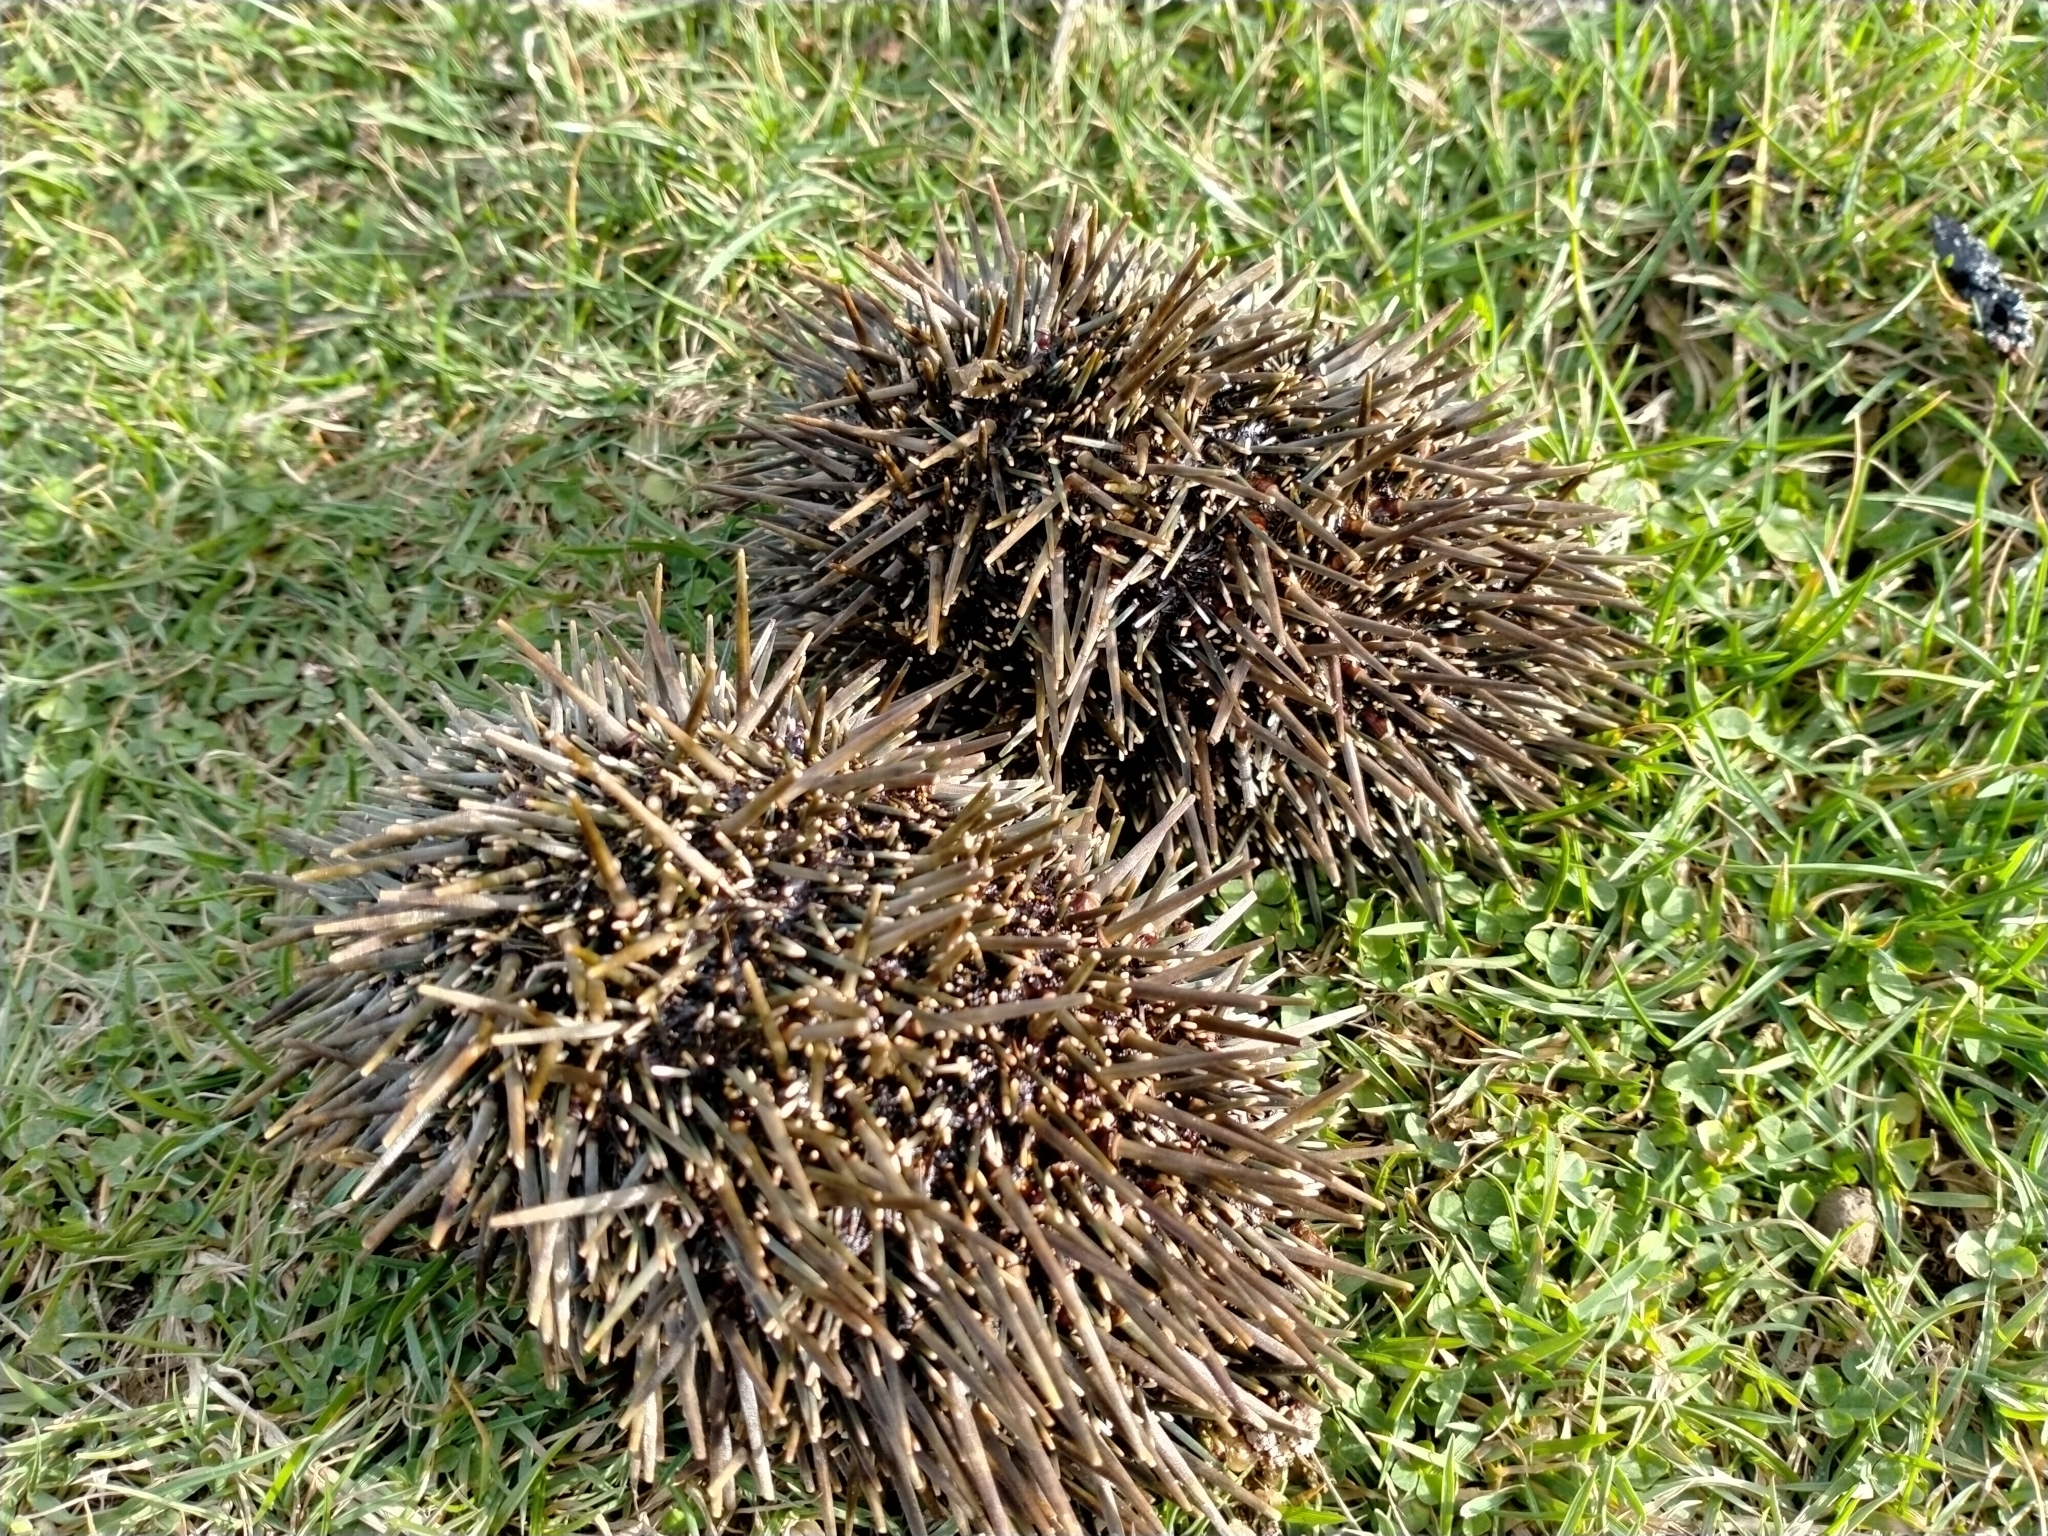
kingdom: Animalia
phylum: Echinodermata
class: Echinoidea
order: Camarodonta
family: Echinometridae
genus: Evechinus
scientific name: Evechinus chloroticus
